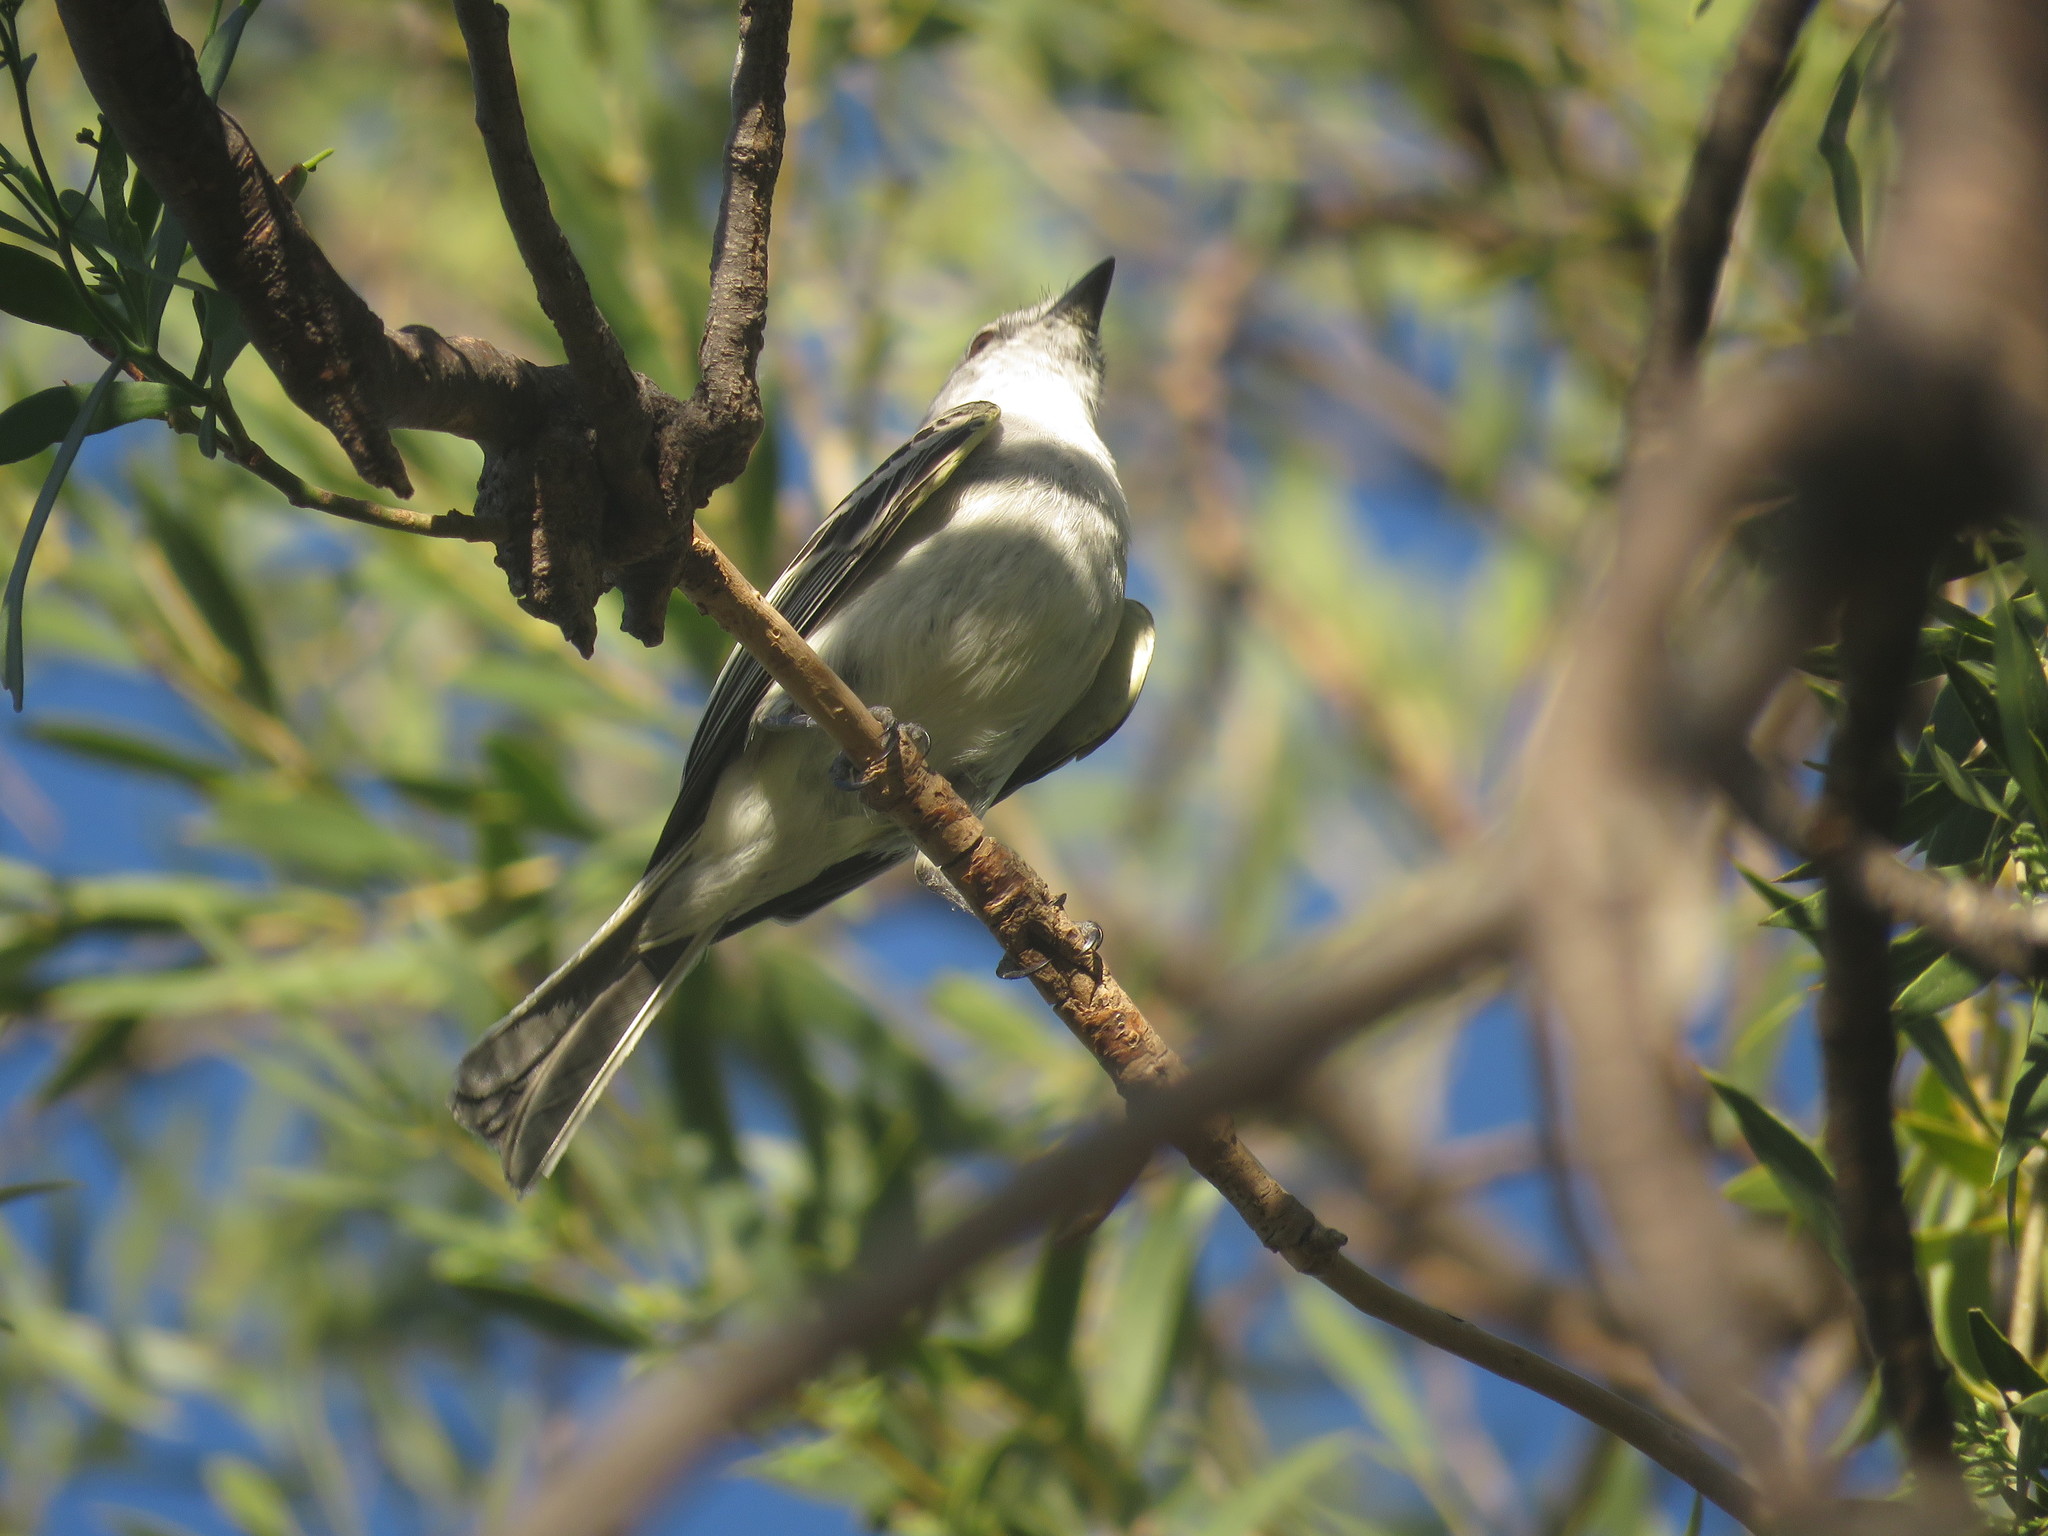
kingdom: Animalia
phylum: Chordata
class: Aves
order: Passeriformes
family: Tyrannidae
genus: Suiriri
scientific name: Suiriri suiriri
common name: Suiriri flycatcher
